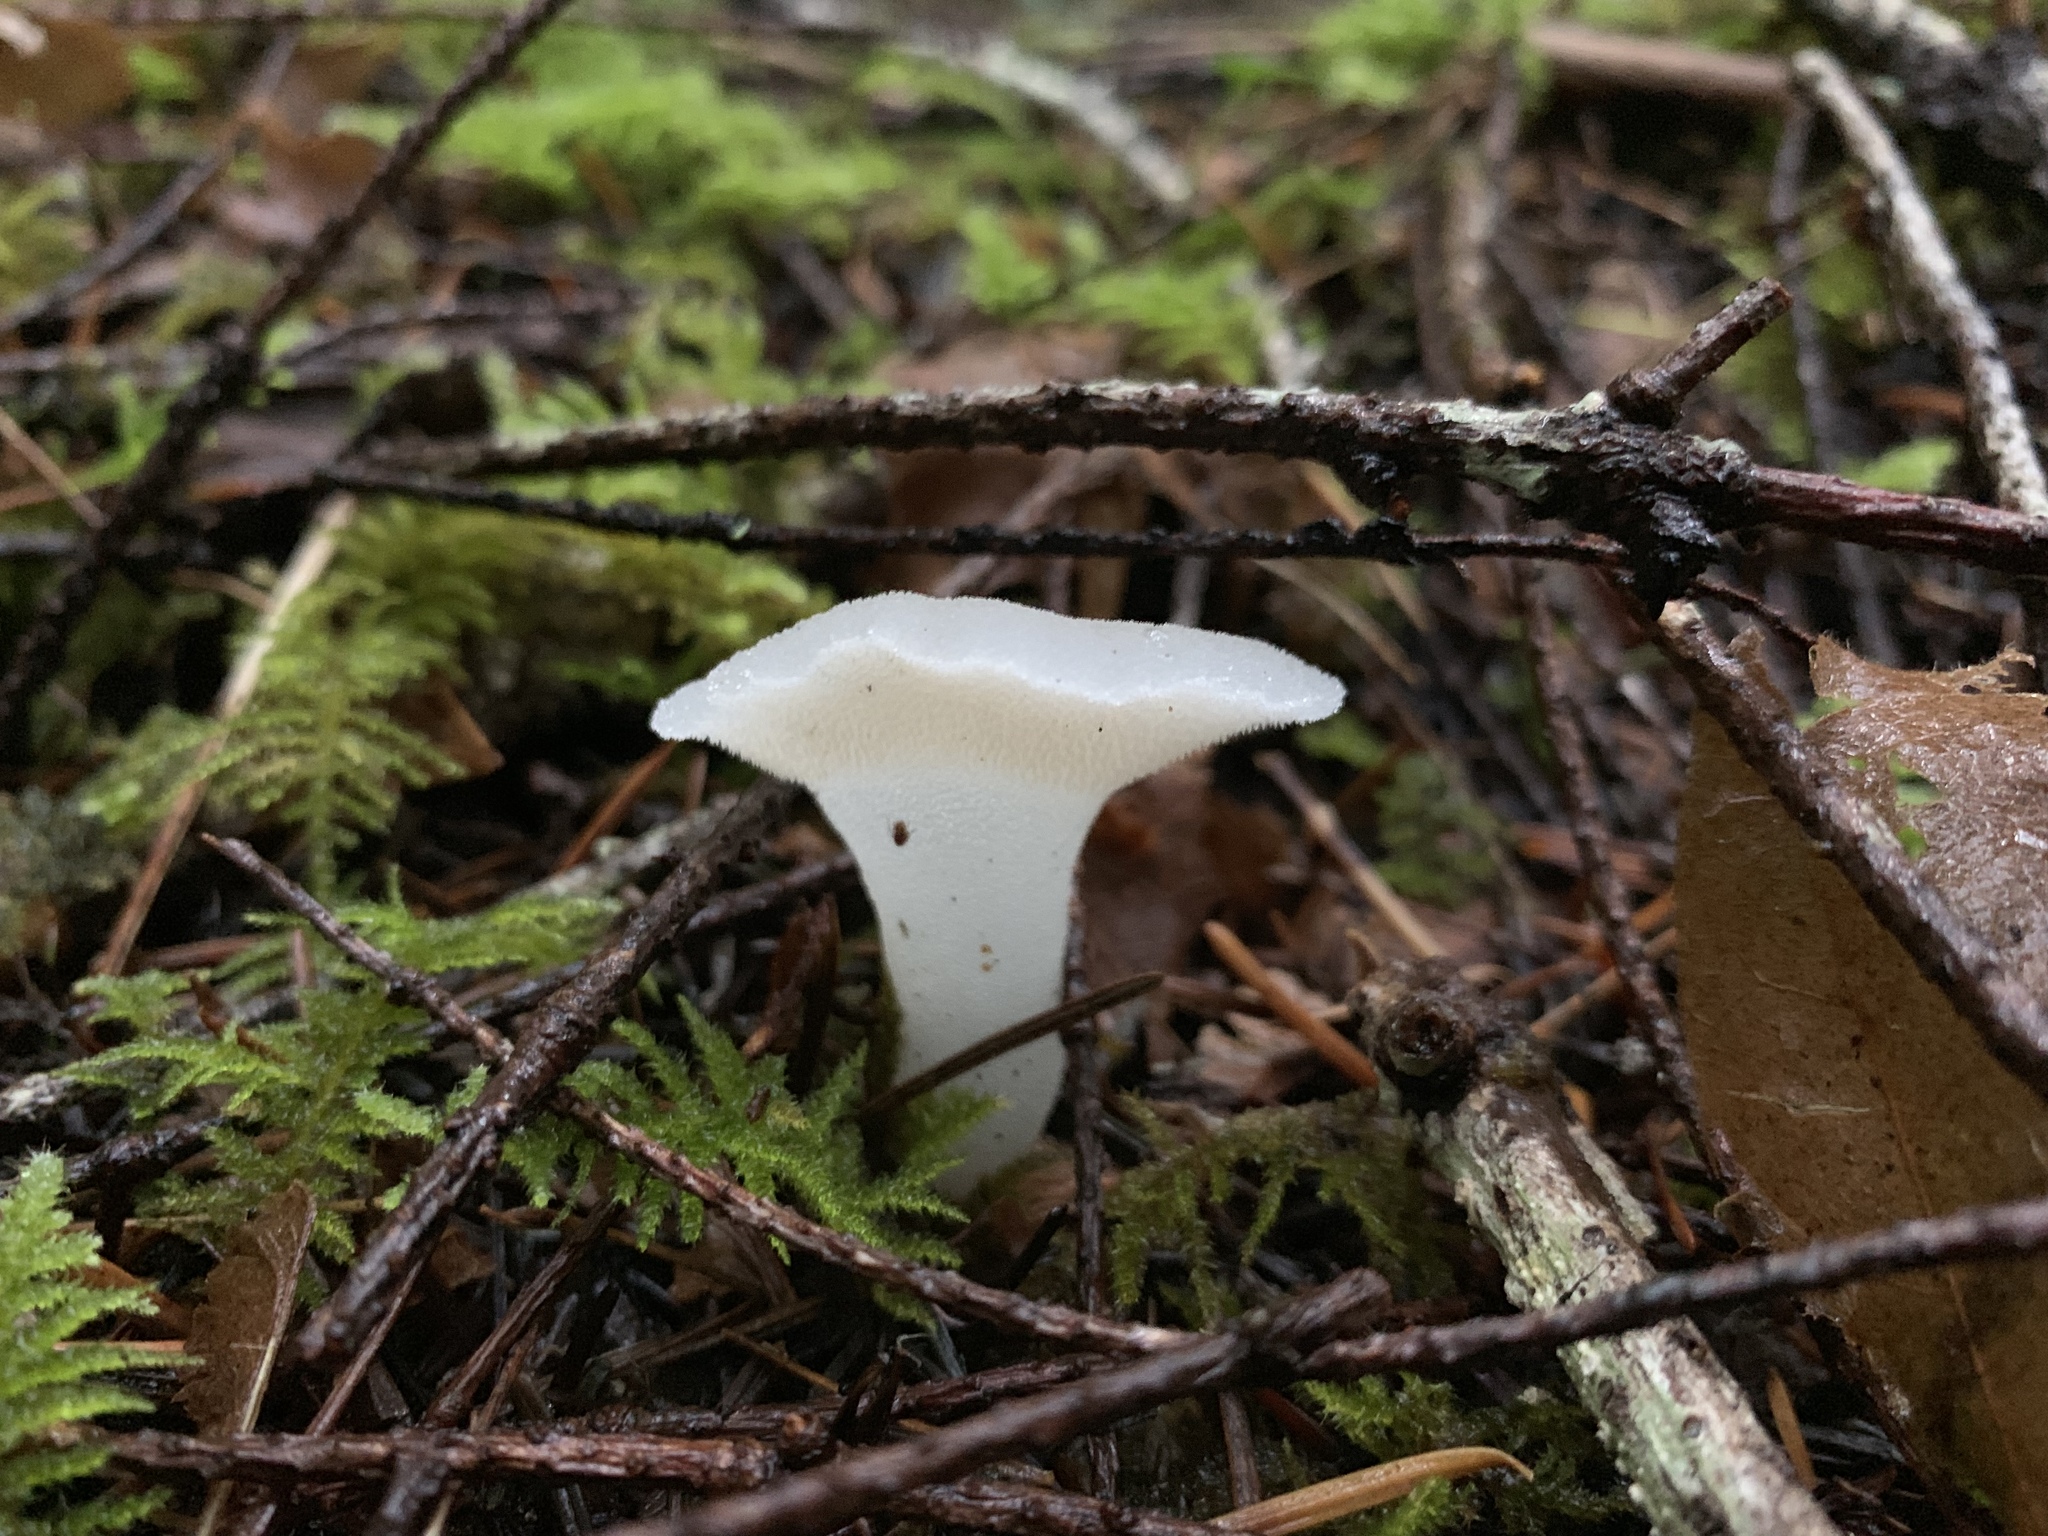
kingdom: Fungi
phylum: Basidiomycota
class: Agaricomycetes
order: Auriculariales
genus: Pseudohydnum
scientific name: Pseudohydnum gelatinosum
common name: Jelly tongue
